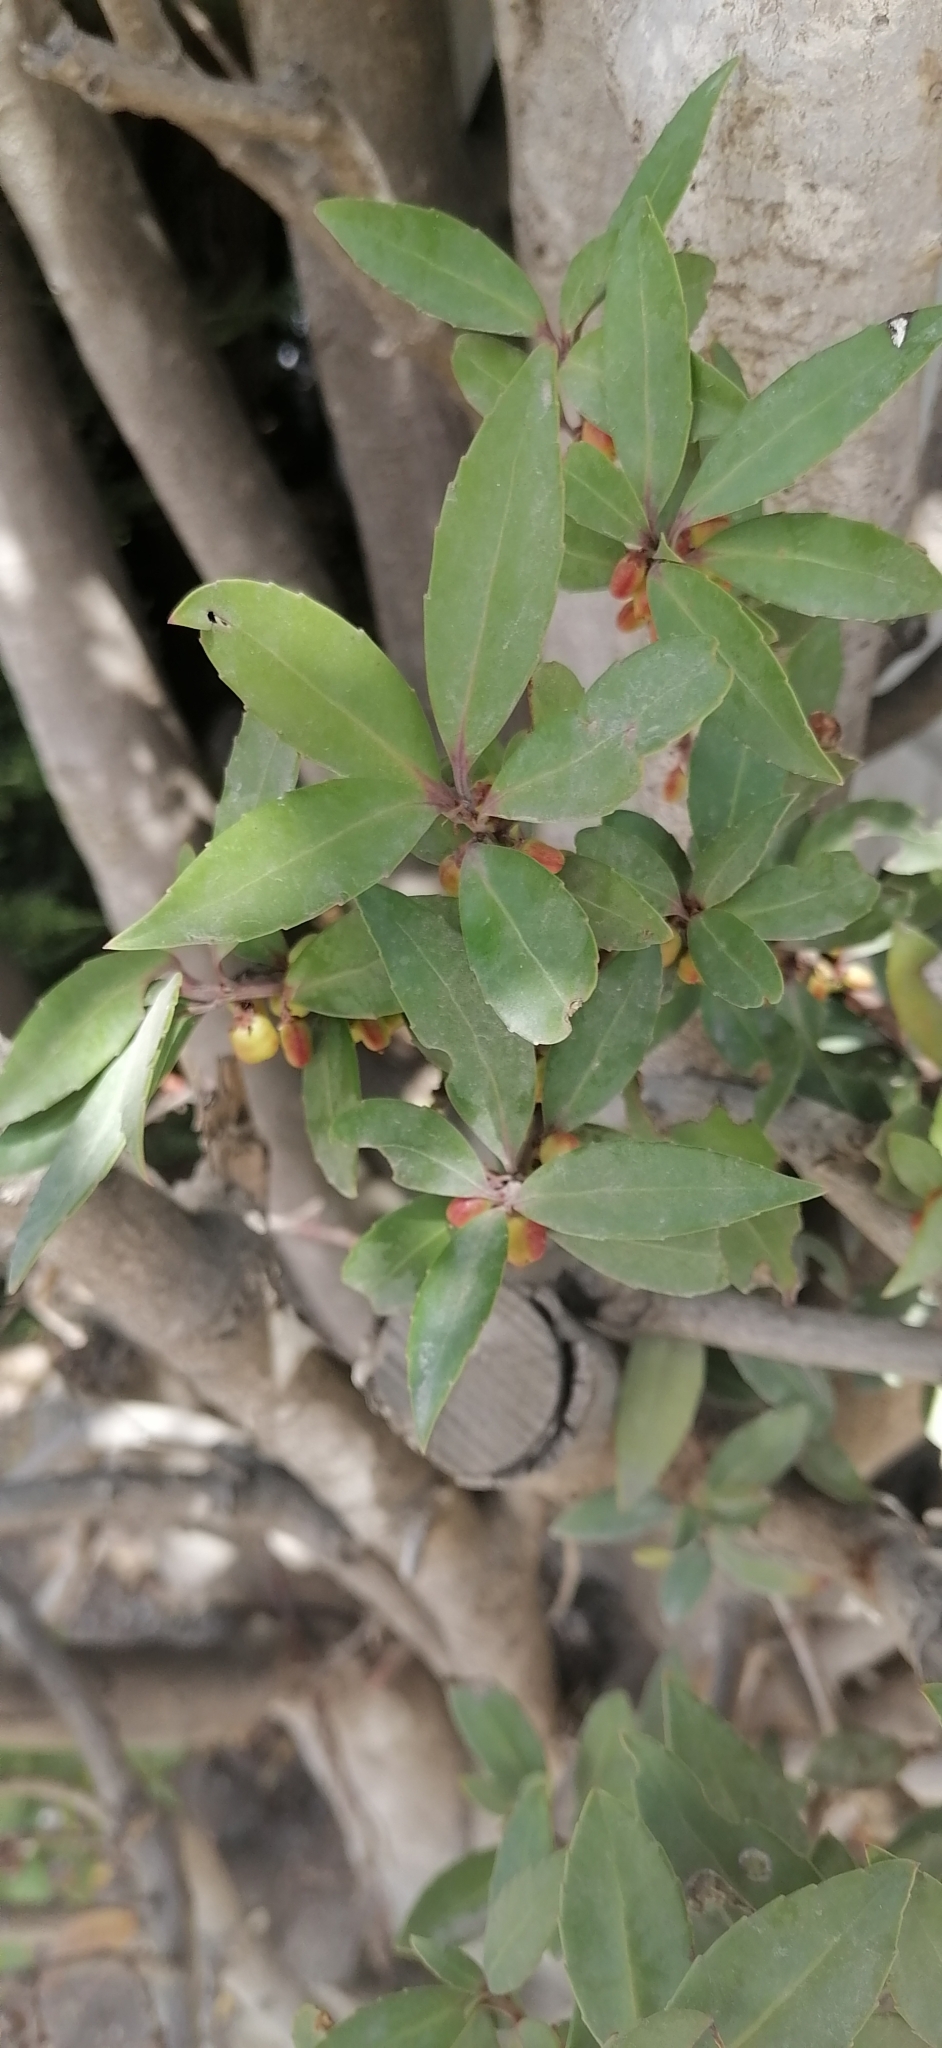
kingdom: Plantae
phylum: Tracheophyta
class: Magnoliopsida
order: Celastrales
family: Celastraceae
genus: Maytenus
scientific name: Maytenus magellanica
